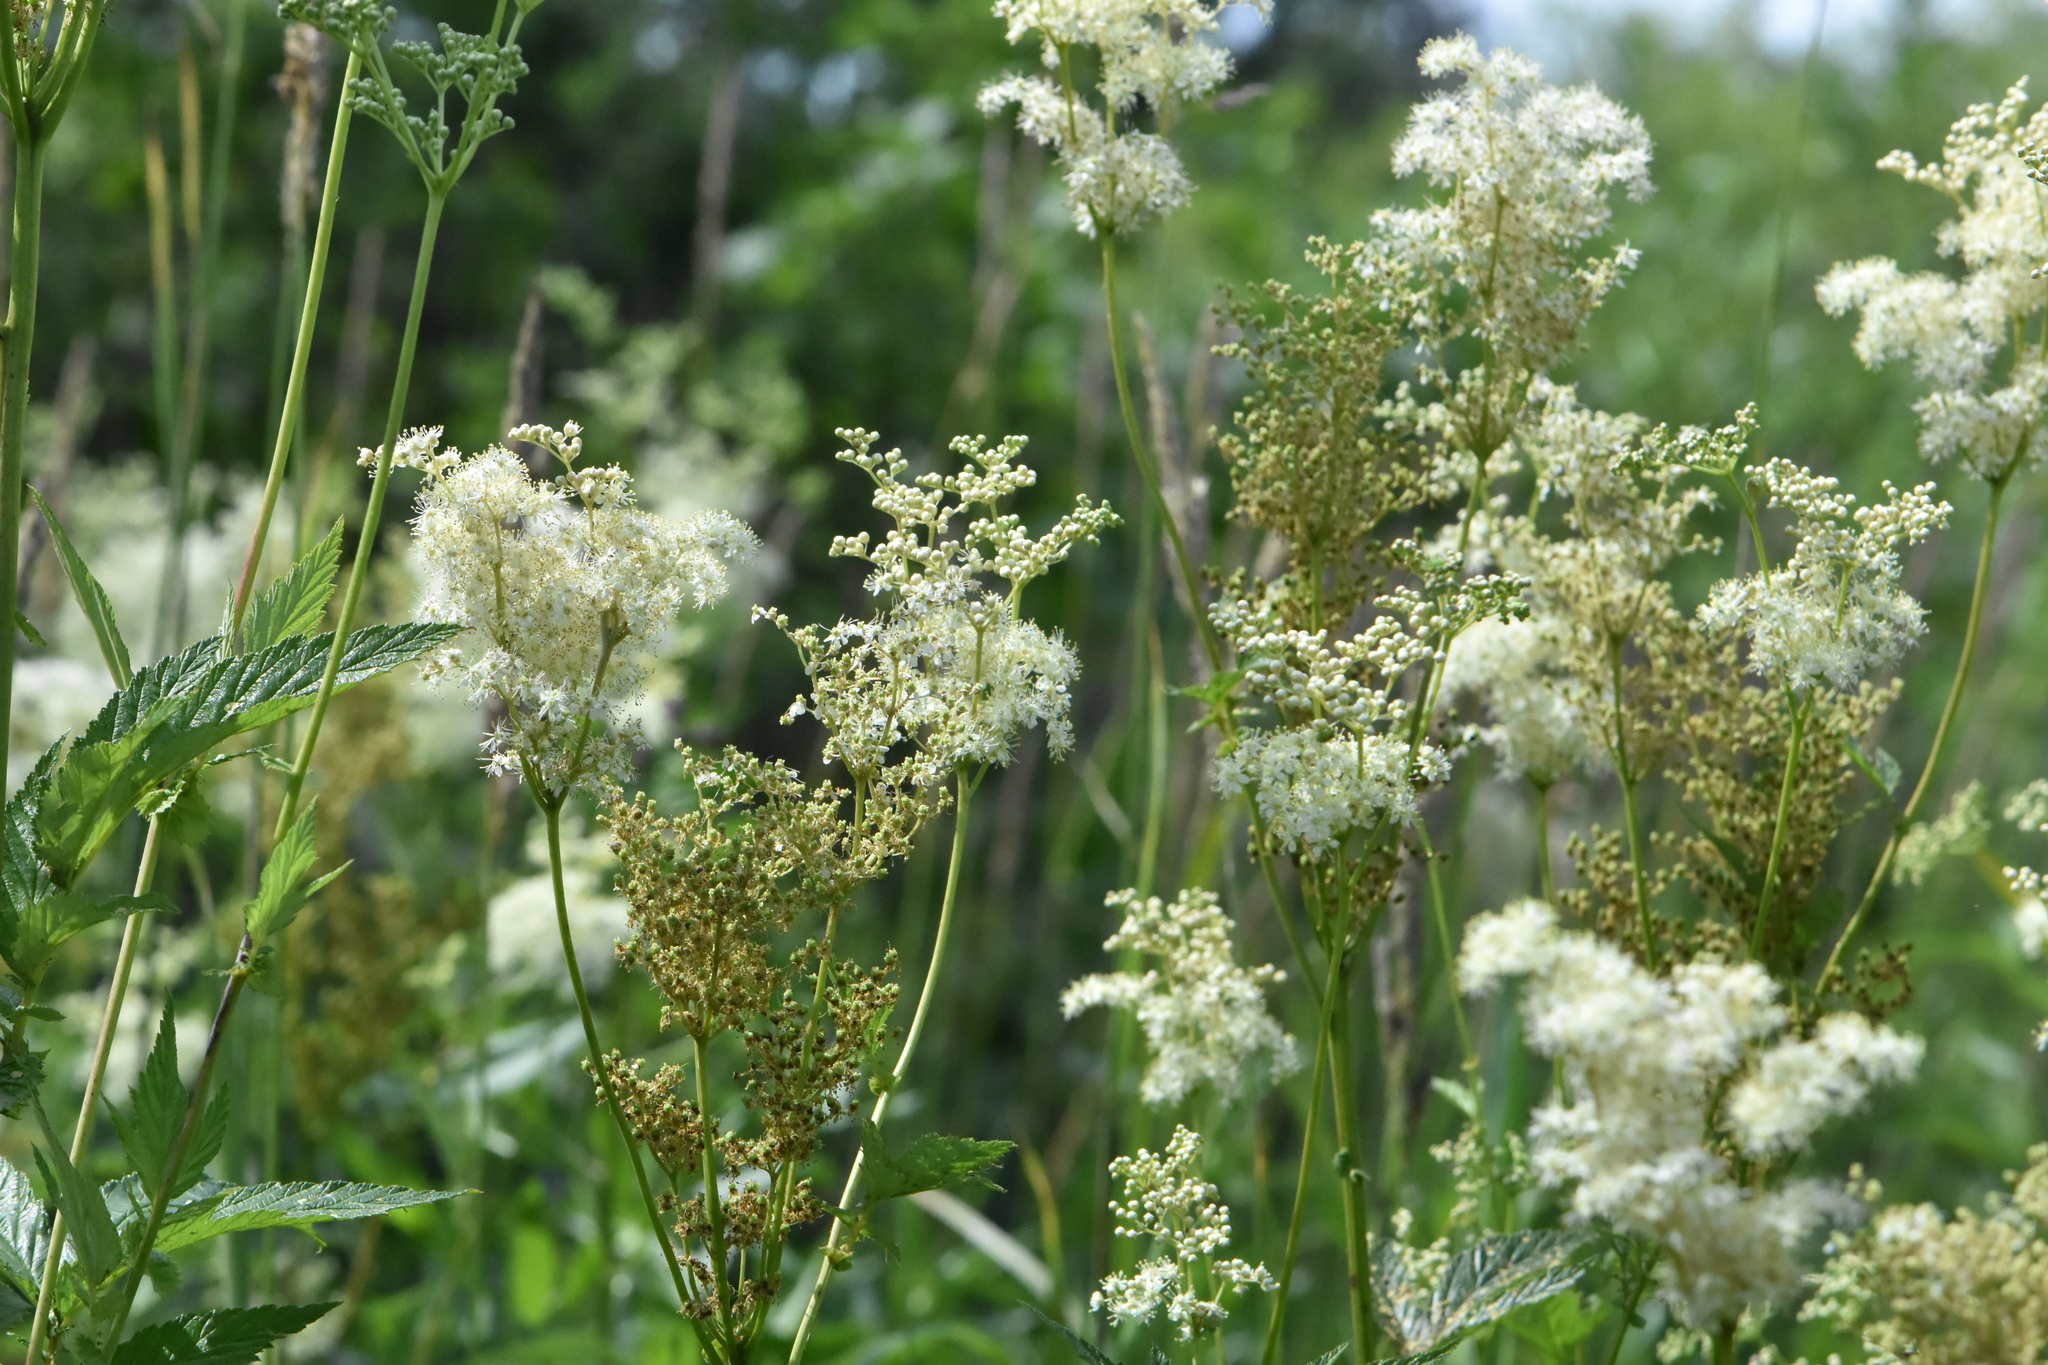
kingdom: Plantae
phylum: Tracheophyta
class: Magnoliopsida
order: Rosales
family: Rosaceae
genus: Filipendula
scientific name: Filipendula ulmaria
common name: Meadowsweet
